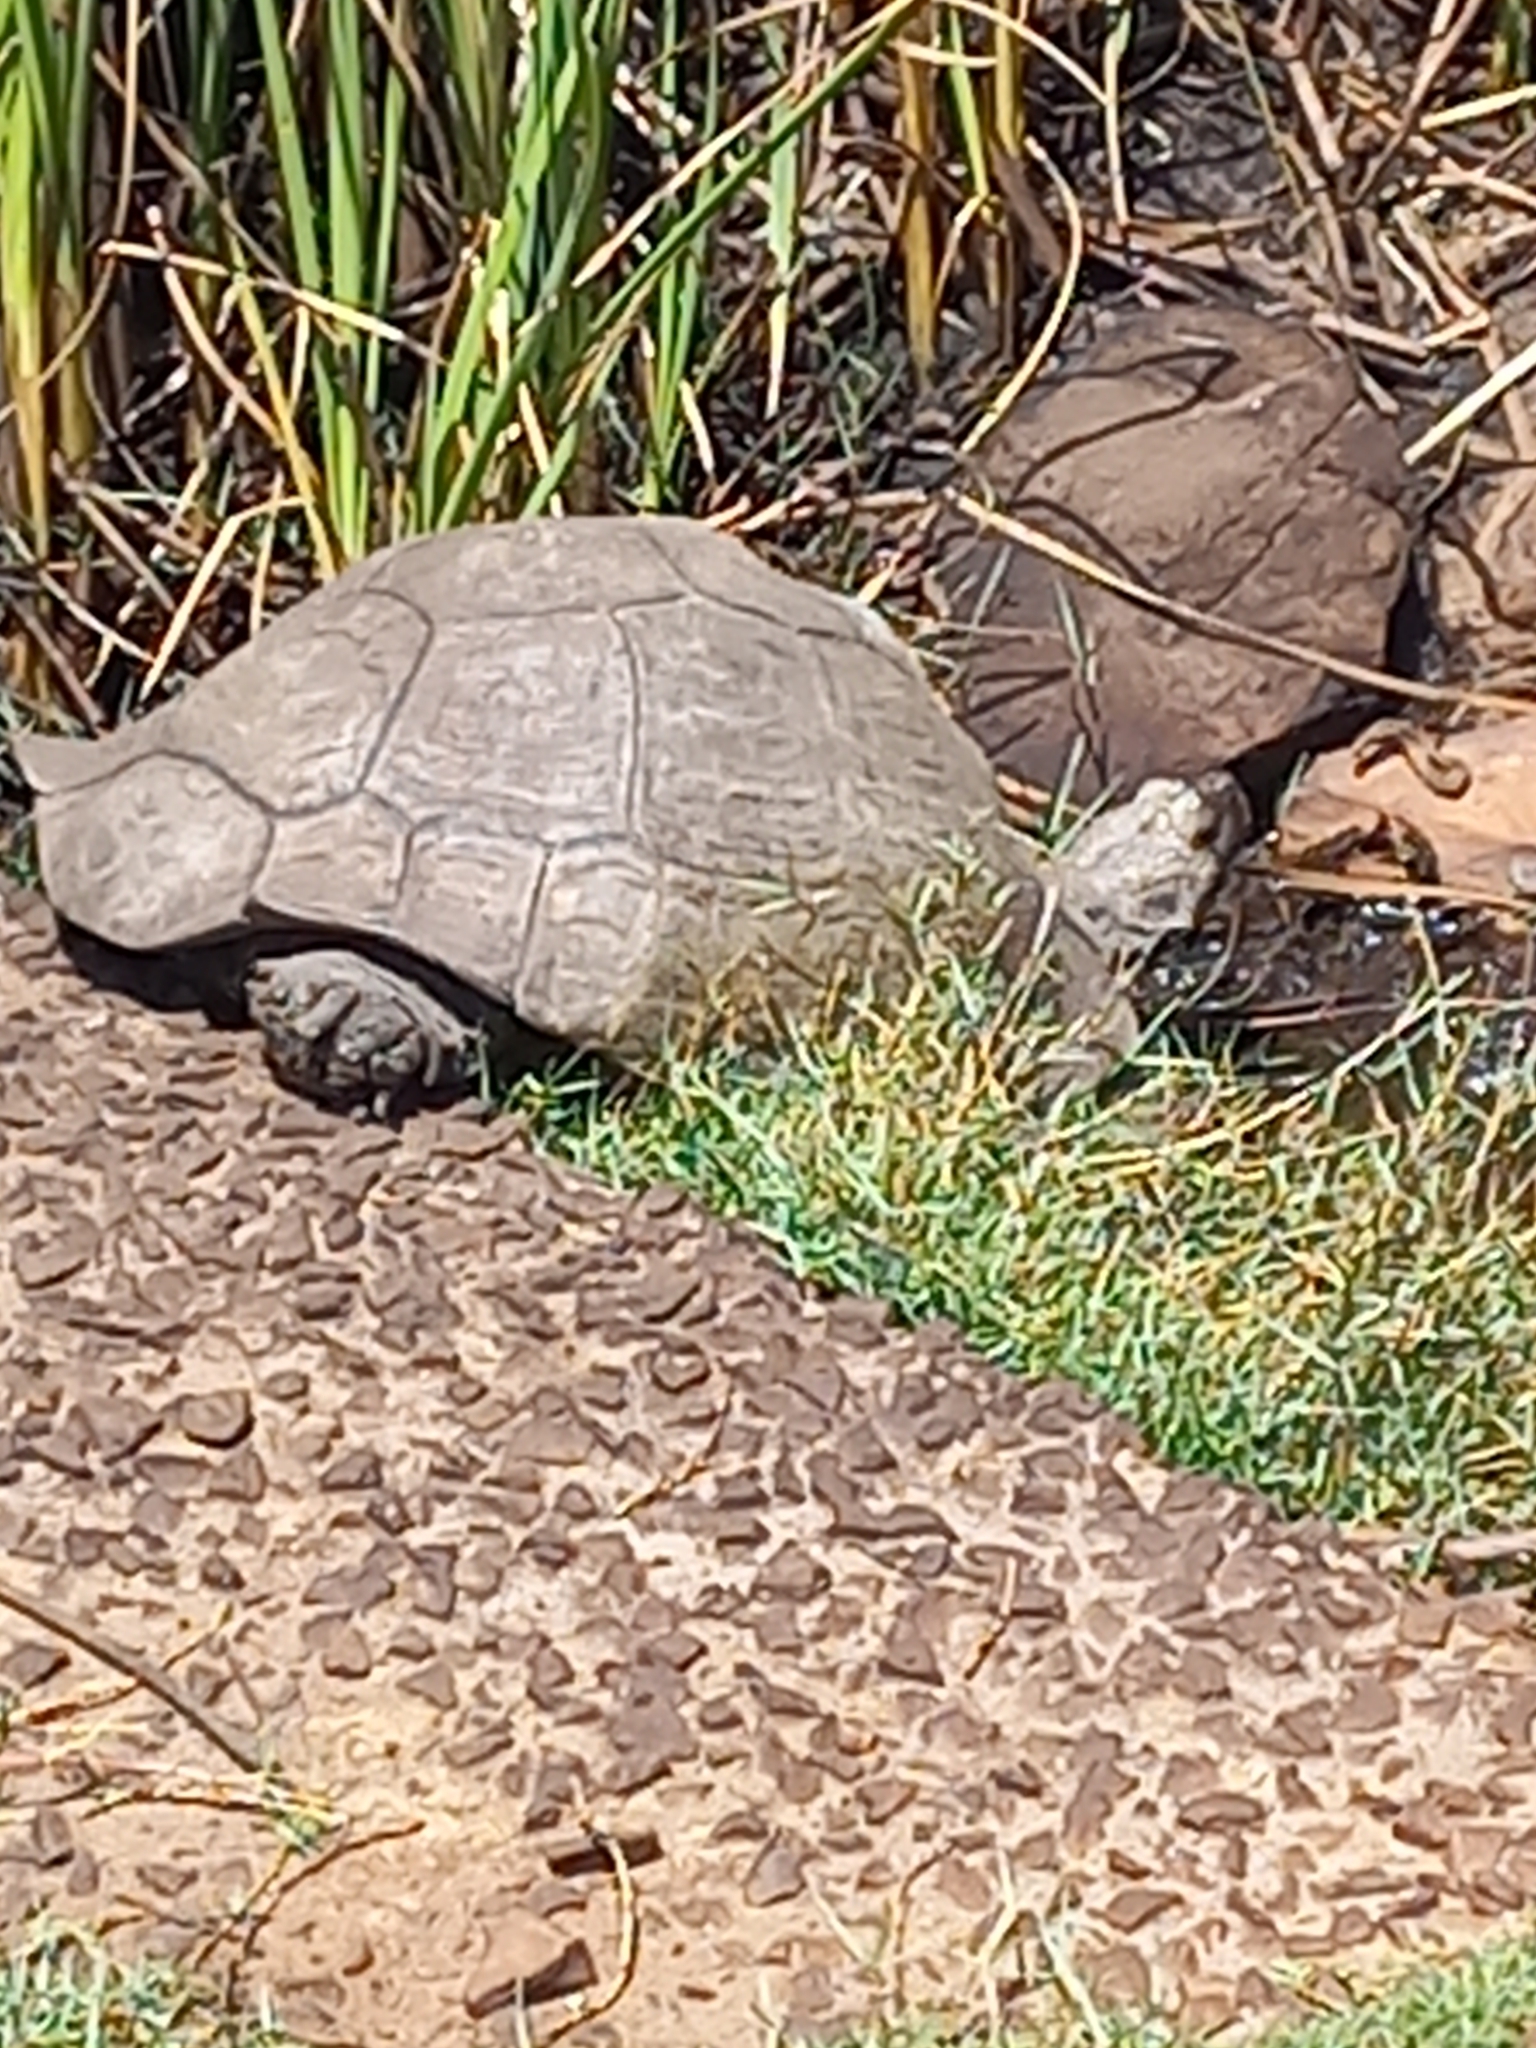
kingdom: Animalia
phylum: Chordata
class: Testudines
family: Testudinidae
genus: Stigmochelys
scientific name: Stigmochelys pardalis
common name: Leopard tortoise
